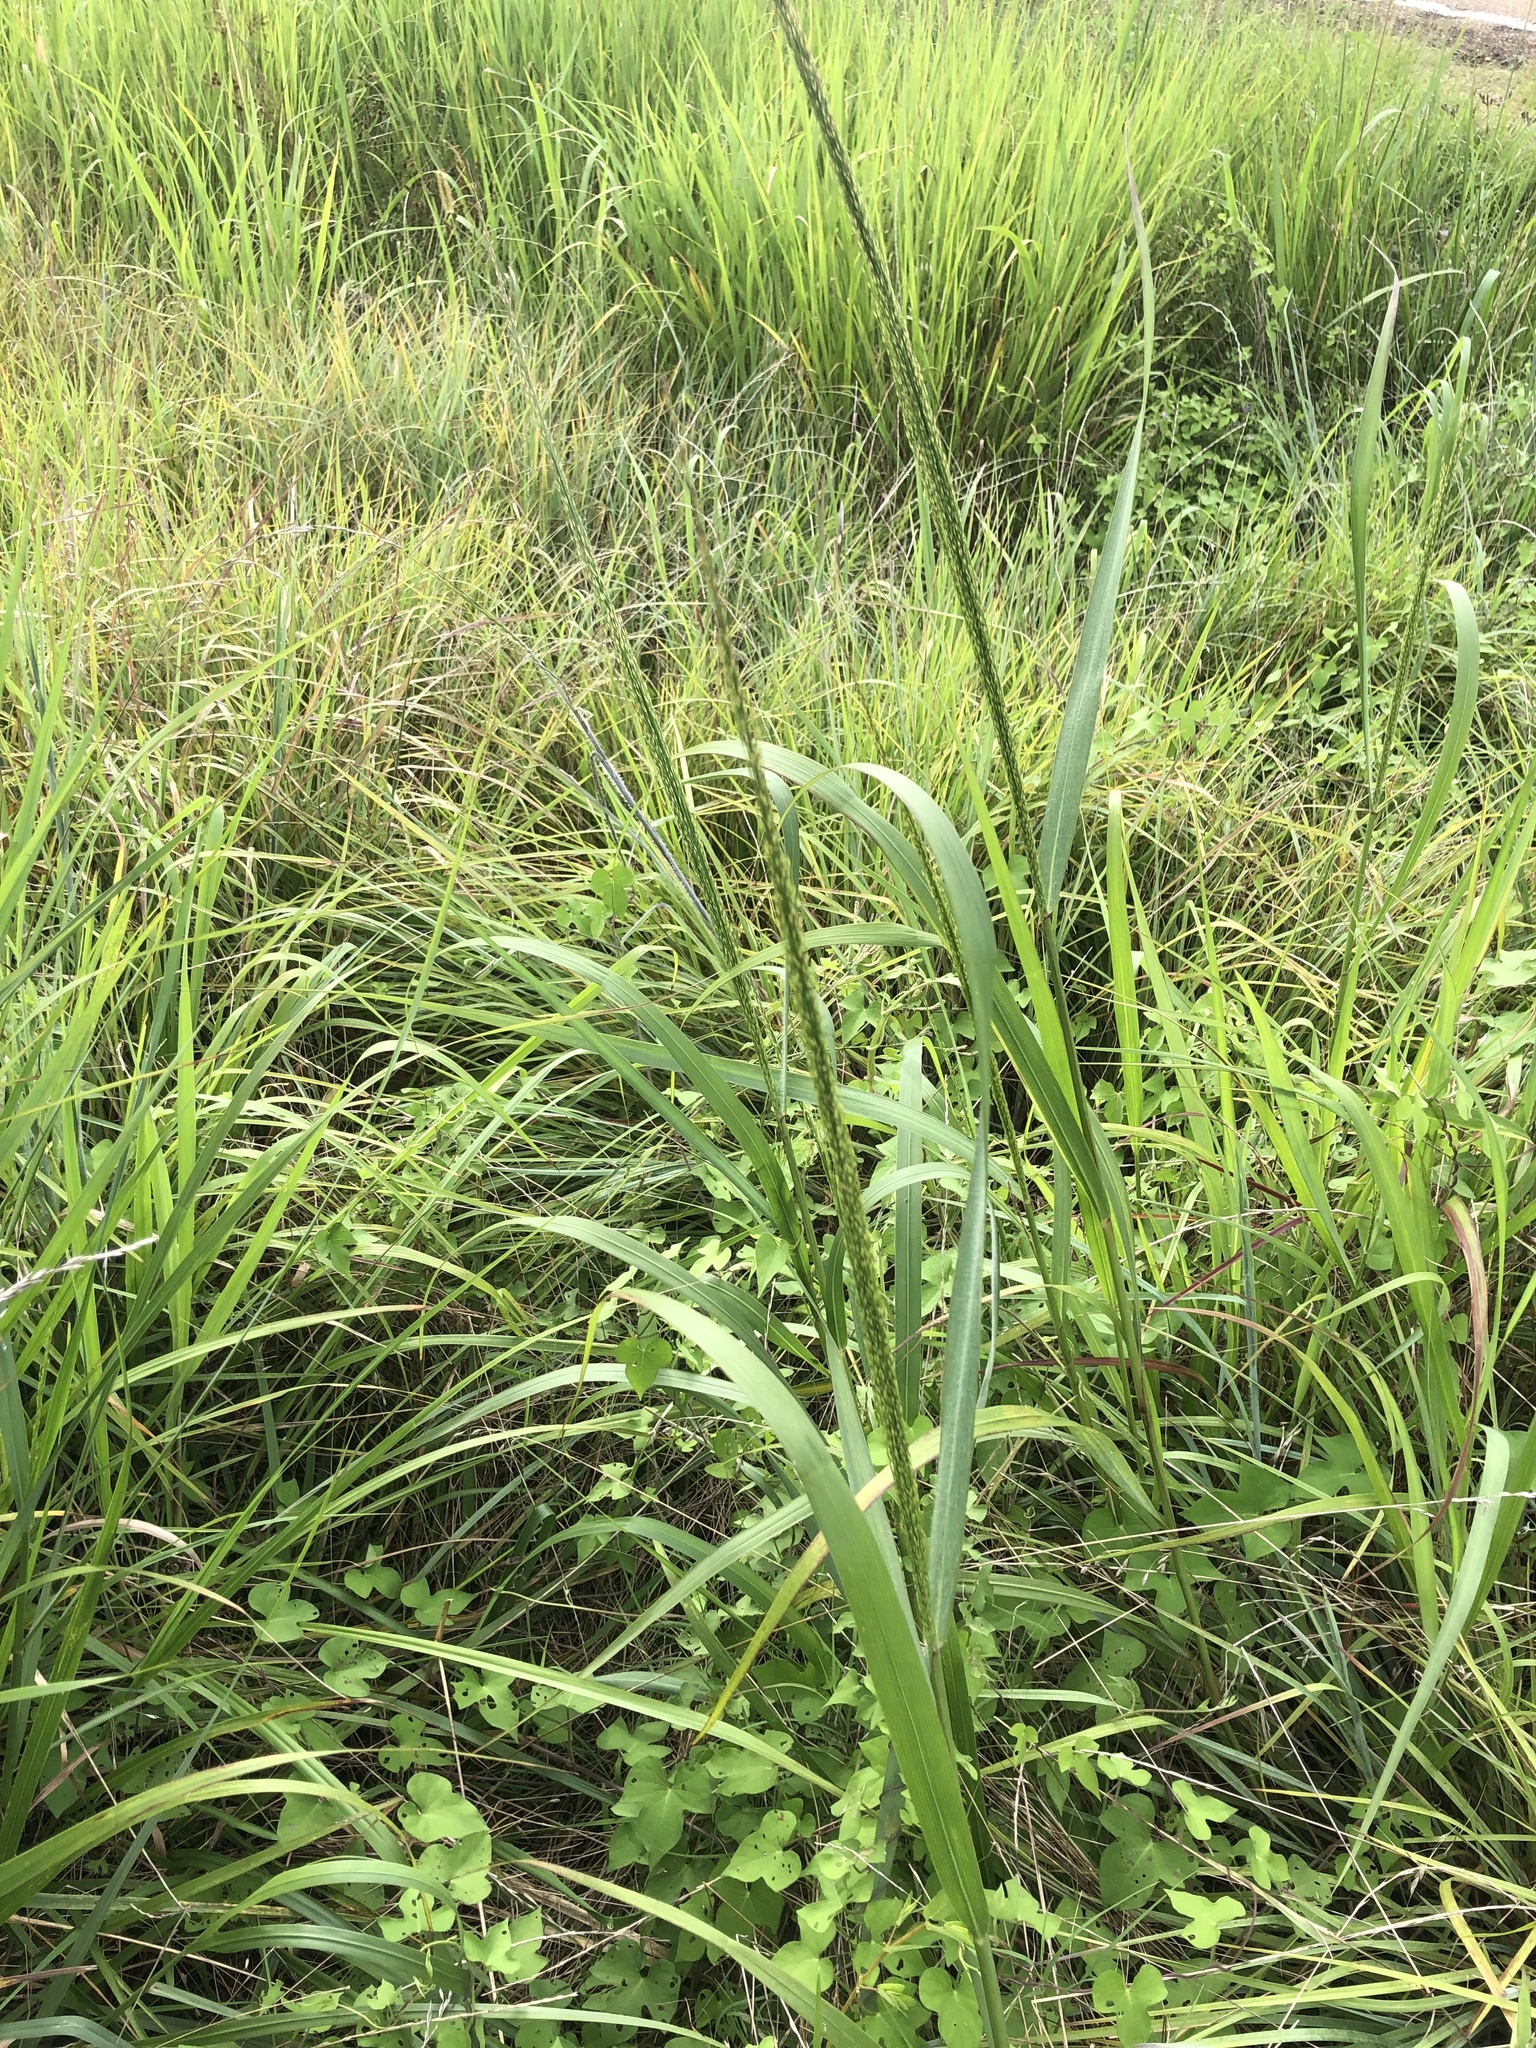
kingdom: Plantae
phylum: Tracheophyta
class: Liliopsida
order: Poales
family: Poaceae
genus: Panicum
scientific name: Panicum virgatum
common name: Switchgrass
